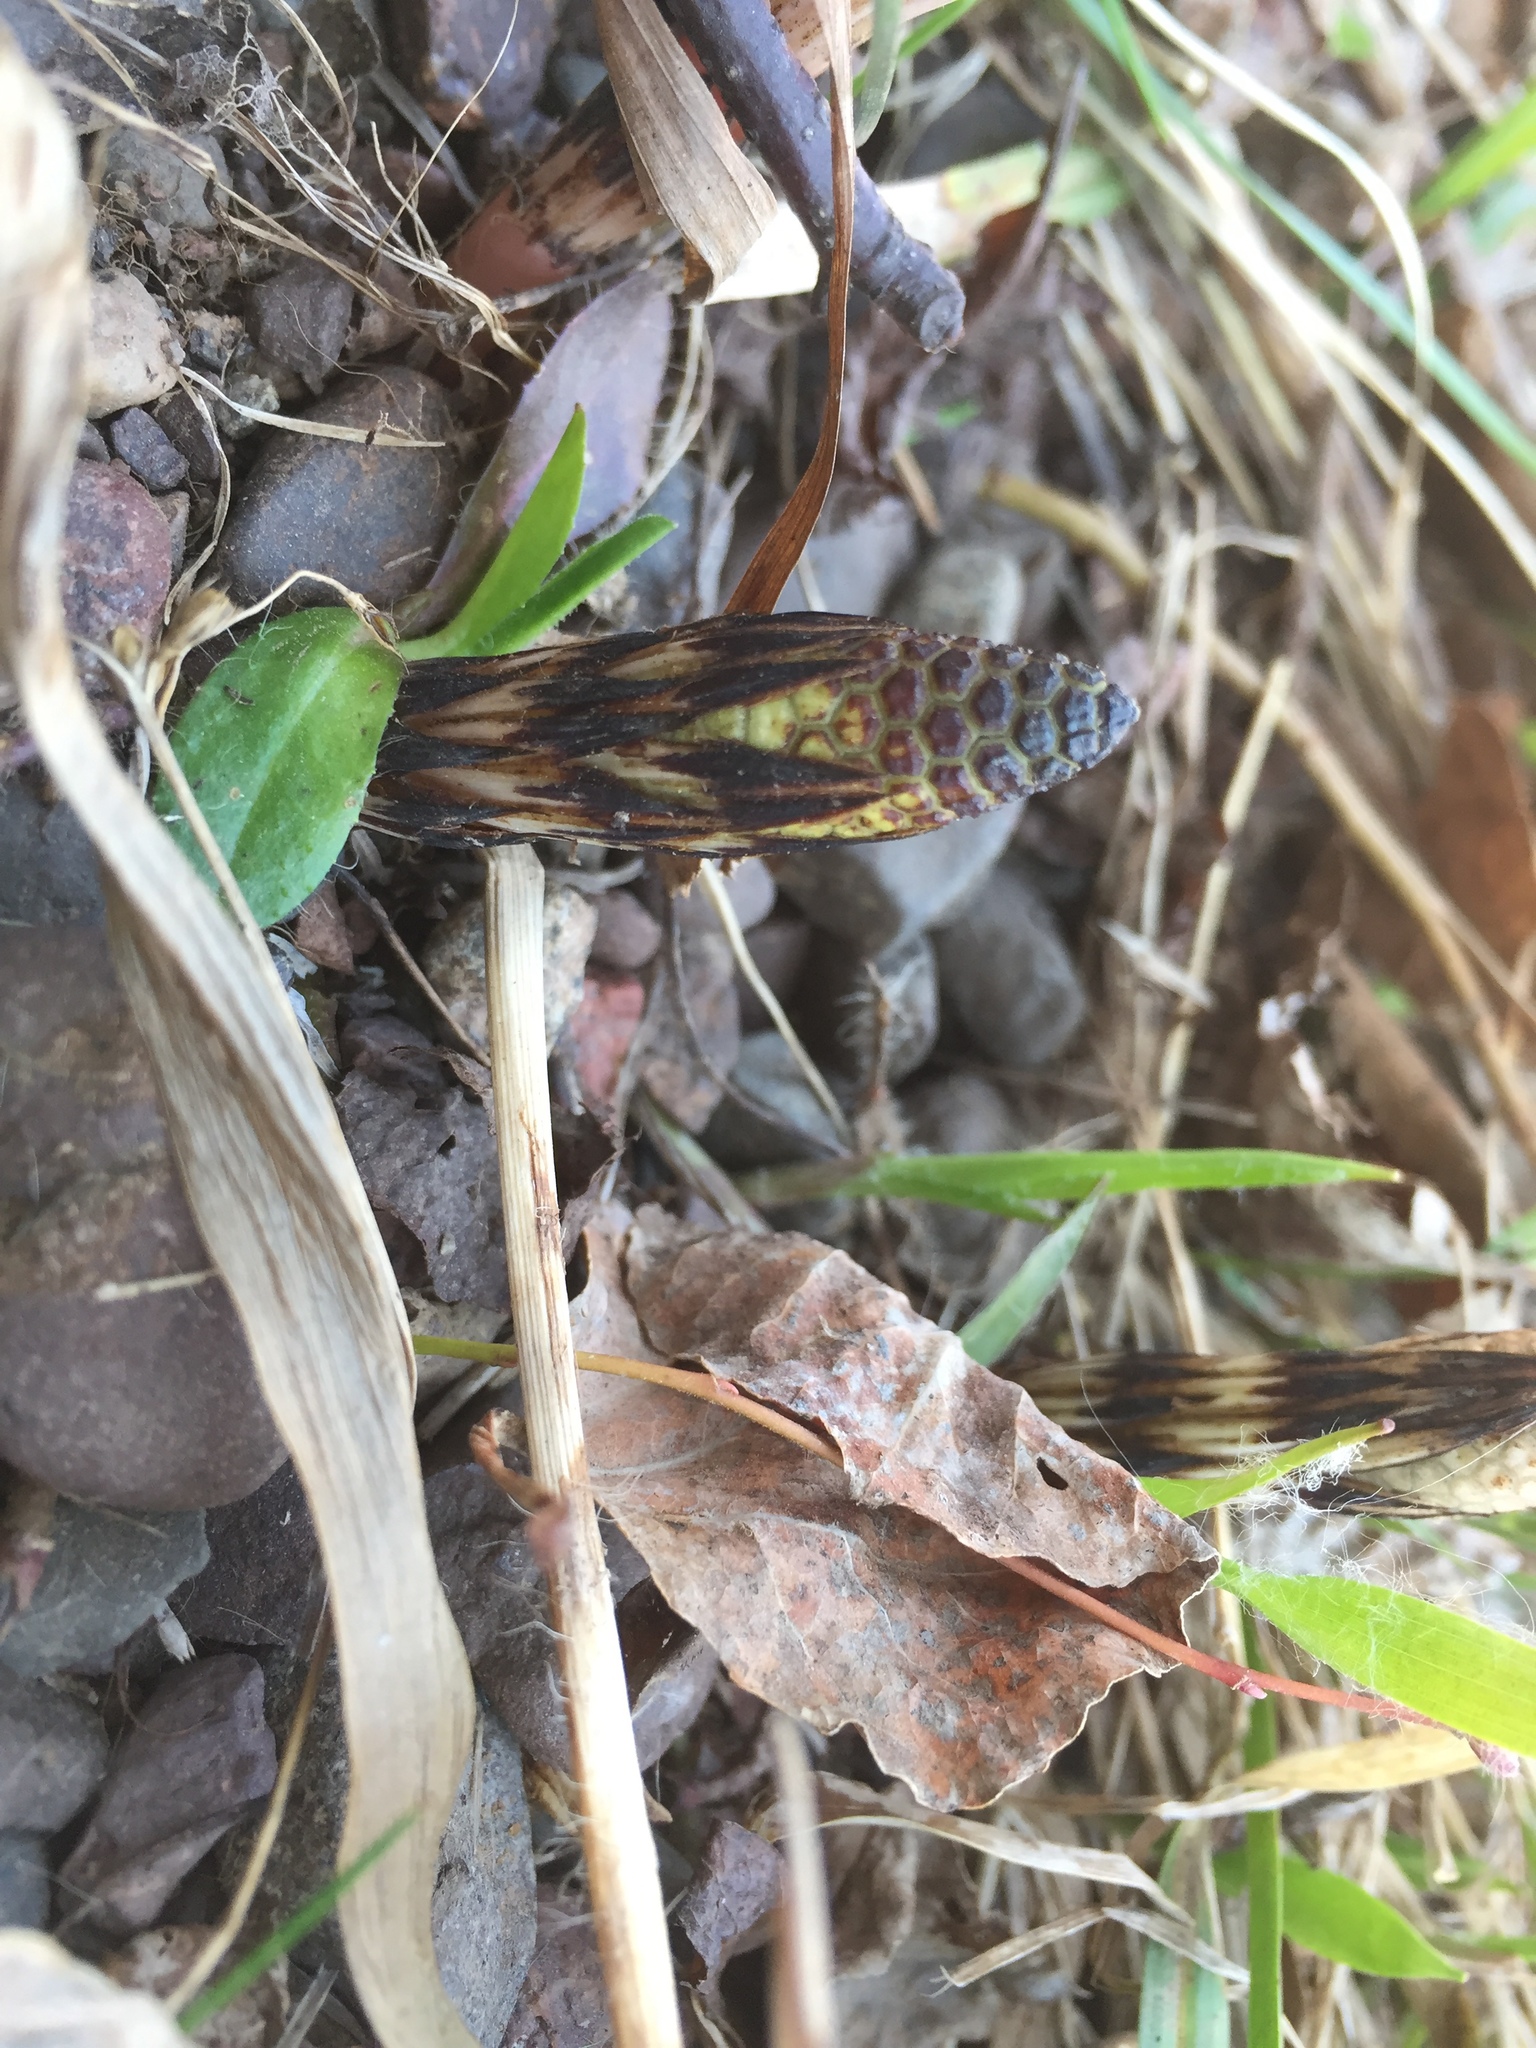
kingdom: Plantae
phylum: Tracheophyta
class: Polypodiopsida
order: Equisetales
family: Equisetaceae
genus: Equisetum
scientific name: Equisetum arvense
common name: Field horsetail
